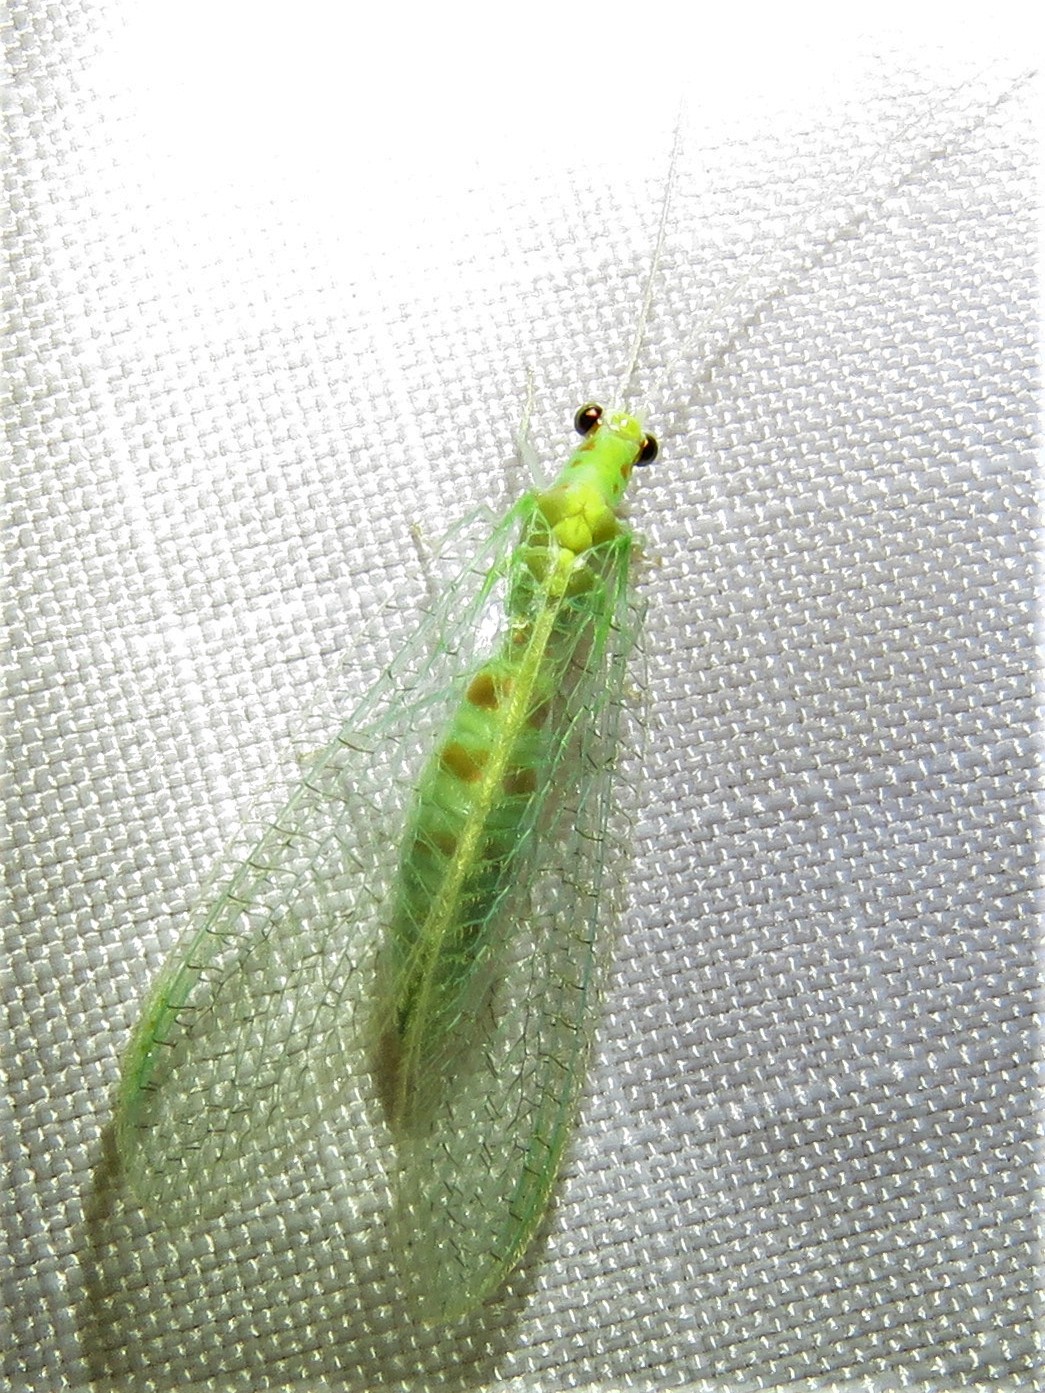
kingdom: Animalia
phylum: Arthropoda
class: Insecta
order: Neuroptera
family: Chrysopidae
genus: Chrysopa
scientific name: Chrysopa quadripunctata
